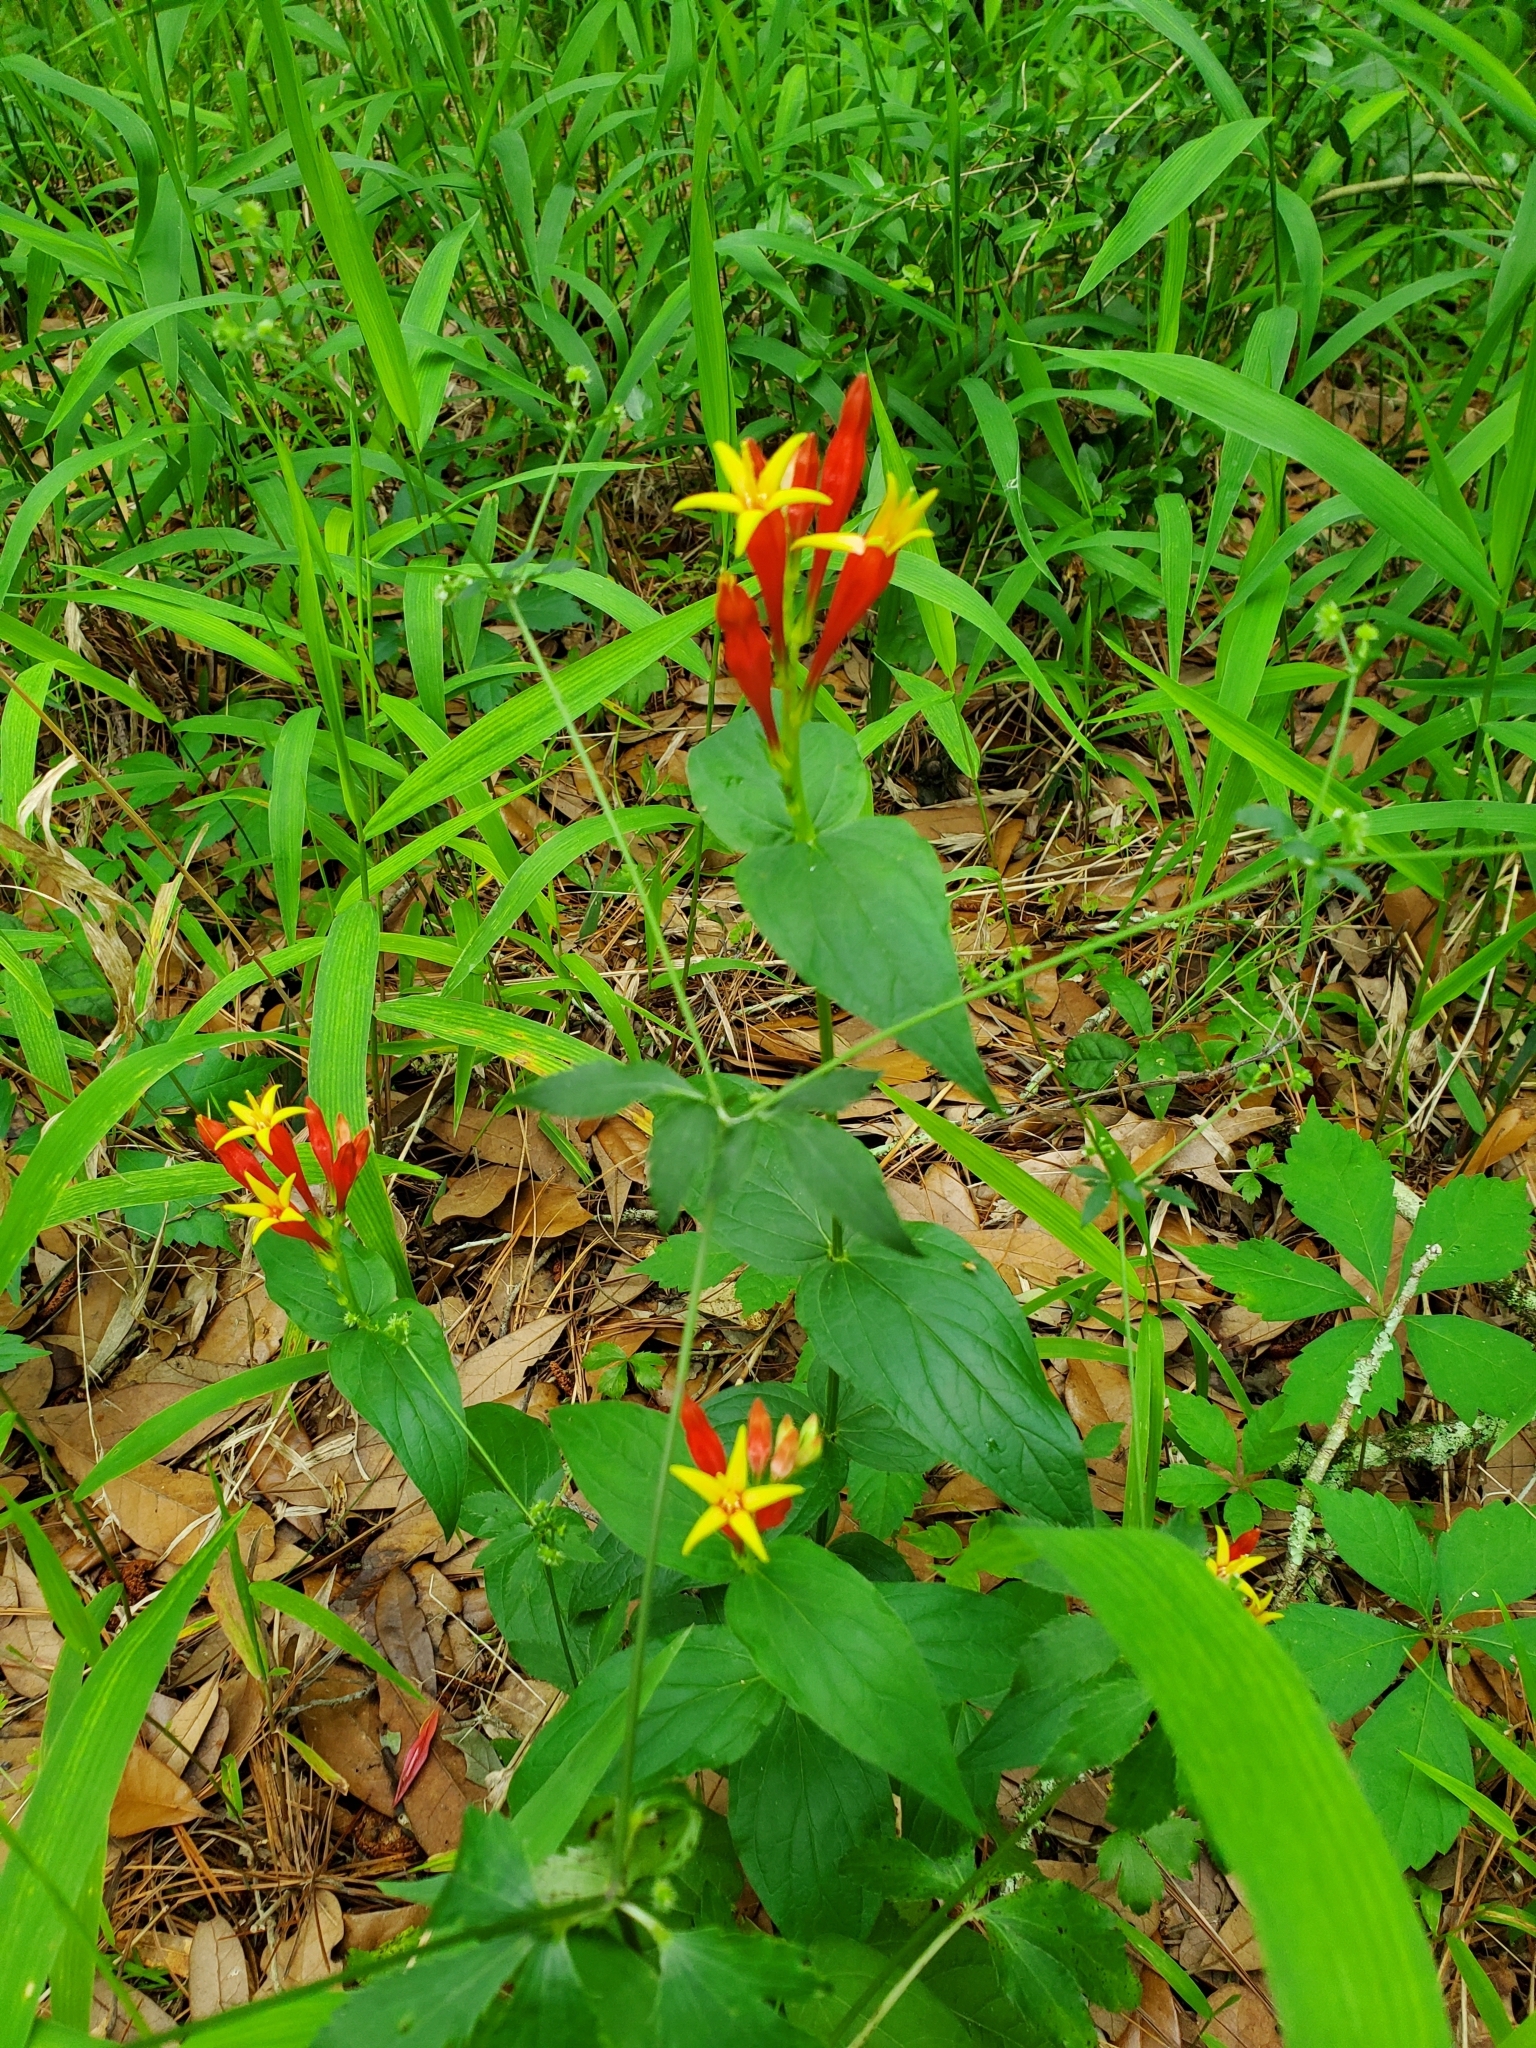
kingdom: Plantae
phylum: Tracheophyta
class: Magnoliopsida
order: Gentianales
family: Loganiaceae
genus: Spigelia
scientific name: Spigelia marilandica
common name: Indian-pink
